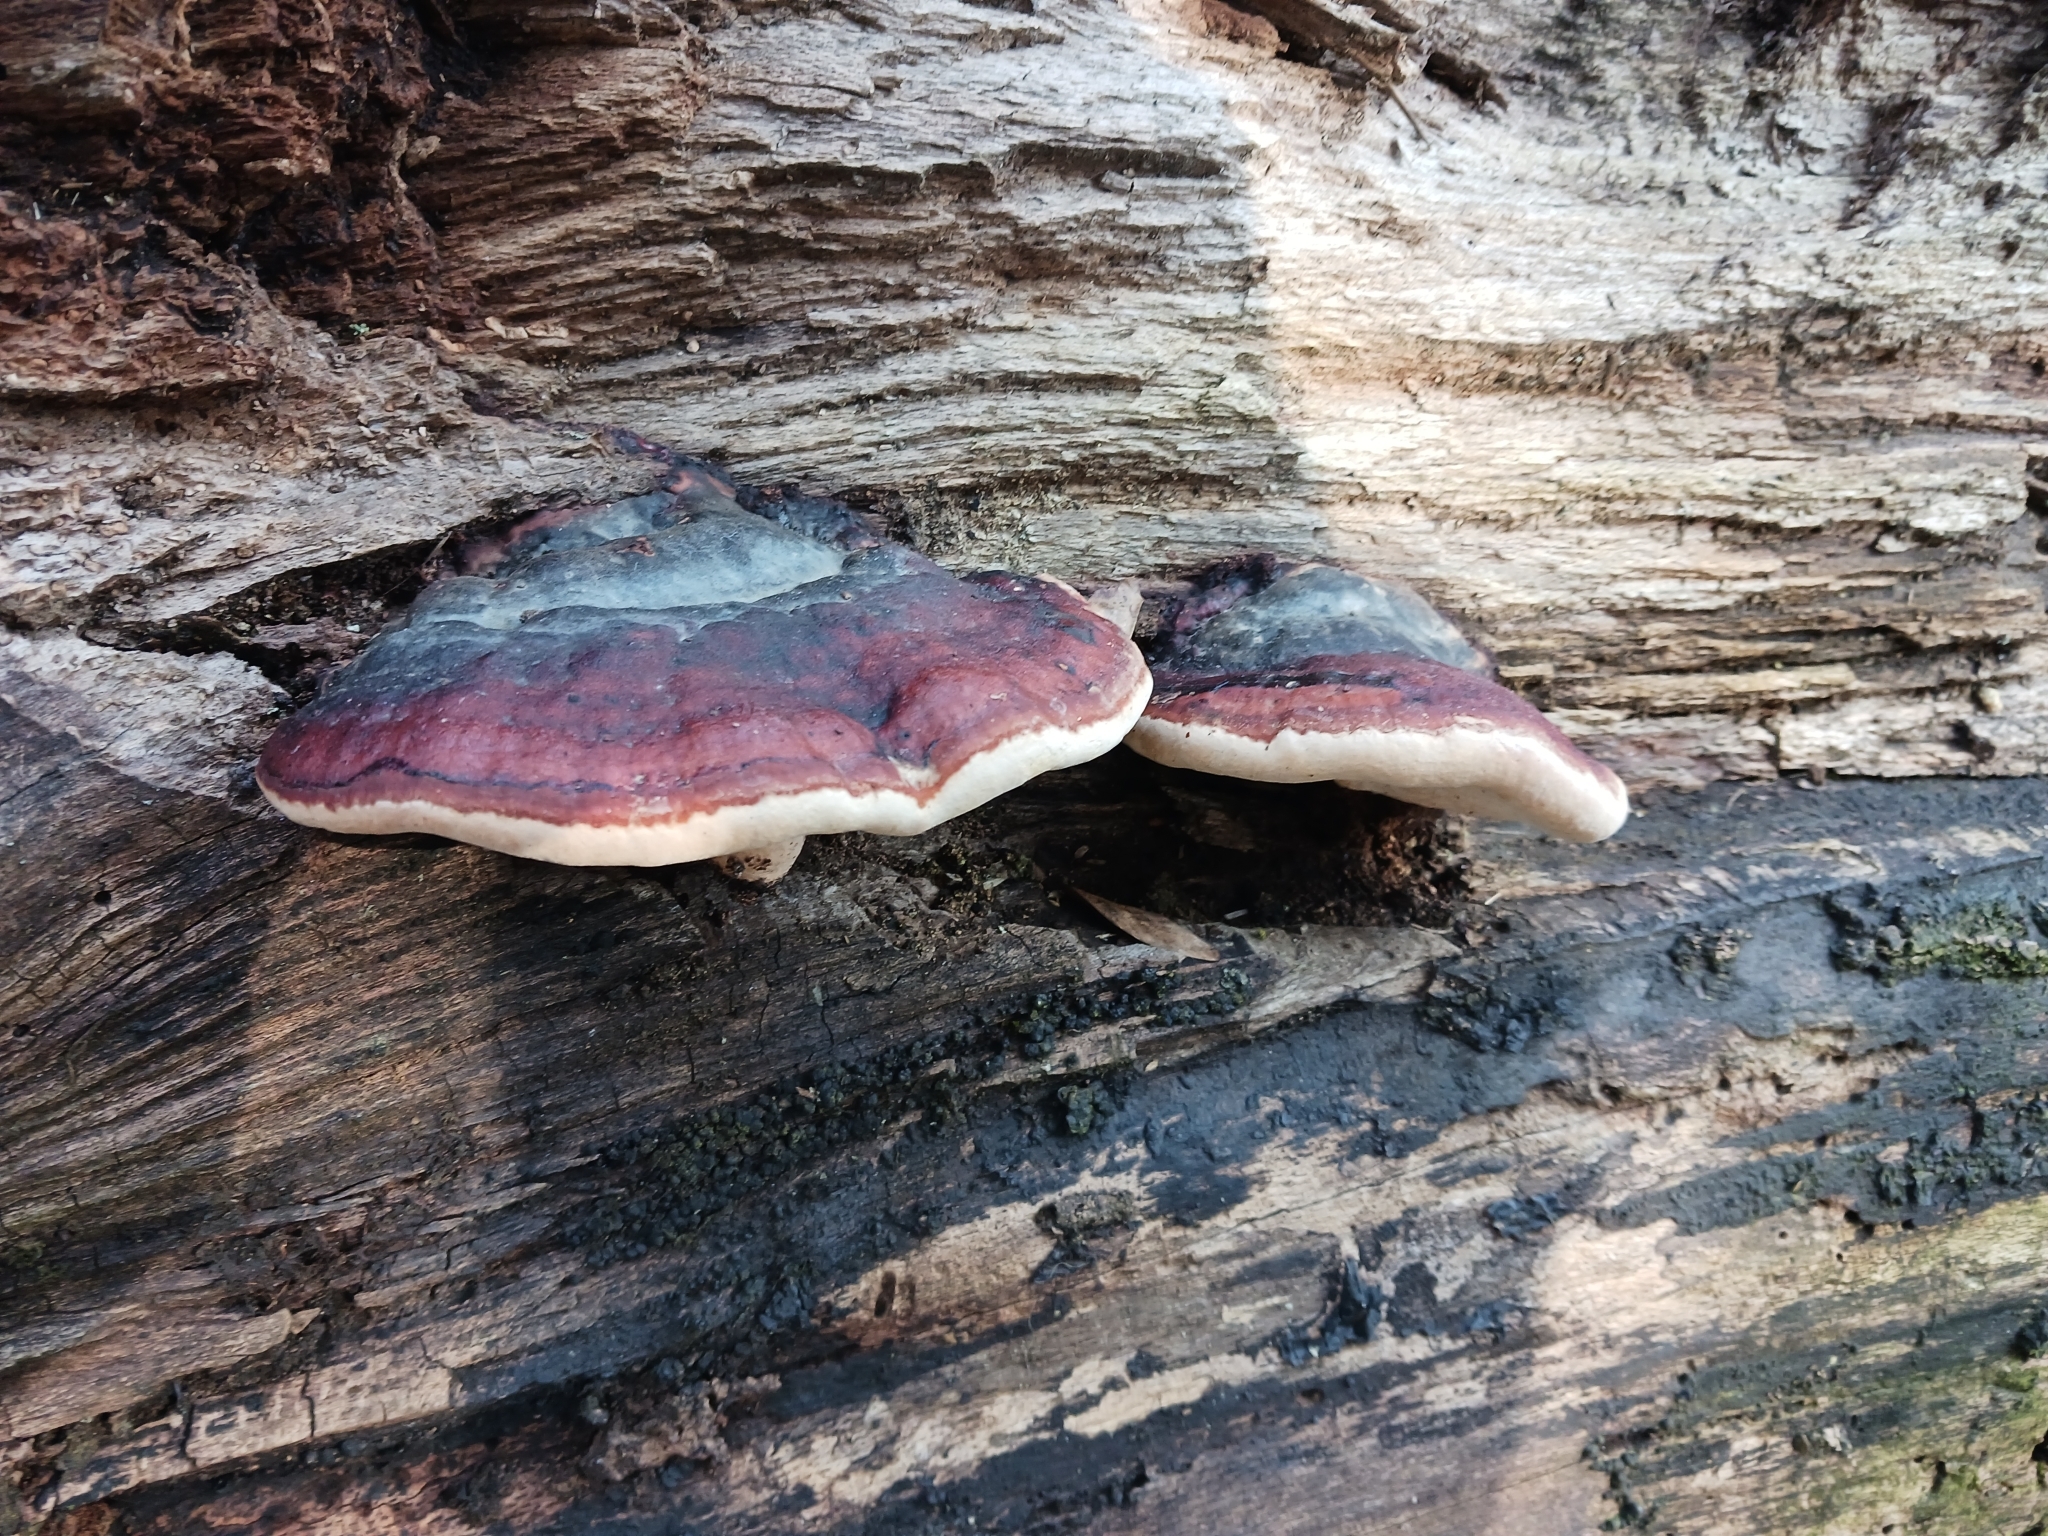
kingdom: Fungi
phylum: Basidiomycota
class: Agaricomycetes
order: Polyporales
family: Fomitopsidaceae
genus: Fomitopsis
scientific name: Fomitopsis pinicola
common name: Red-belted bracket
